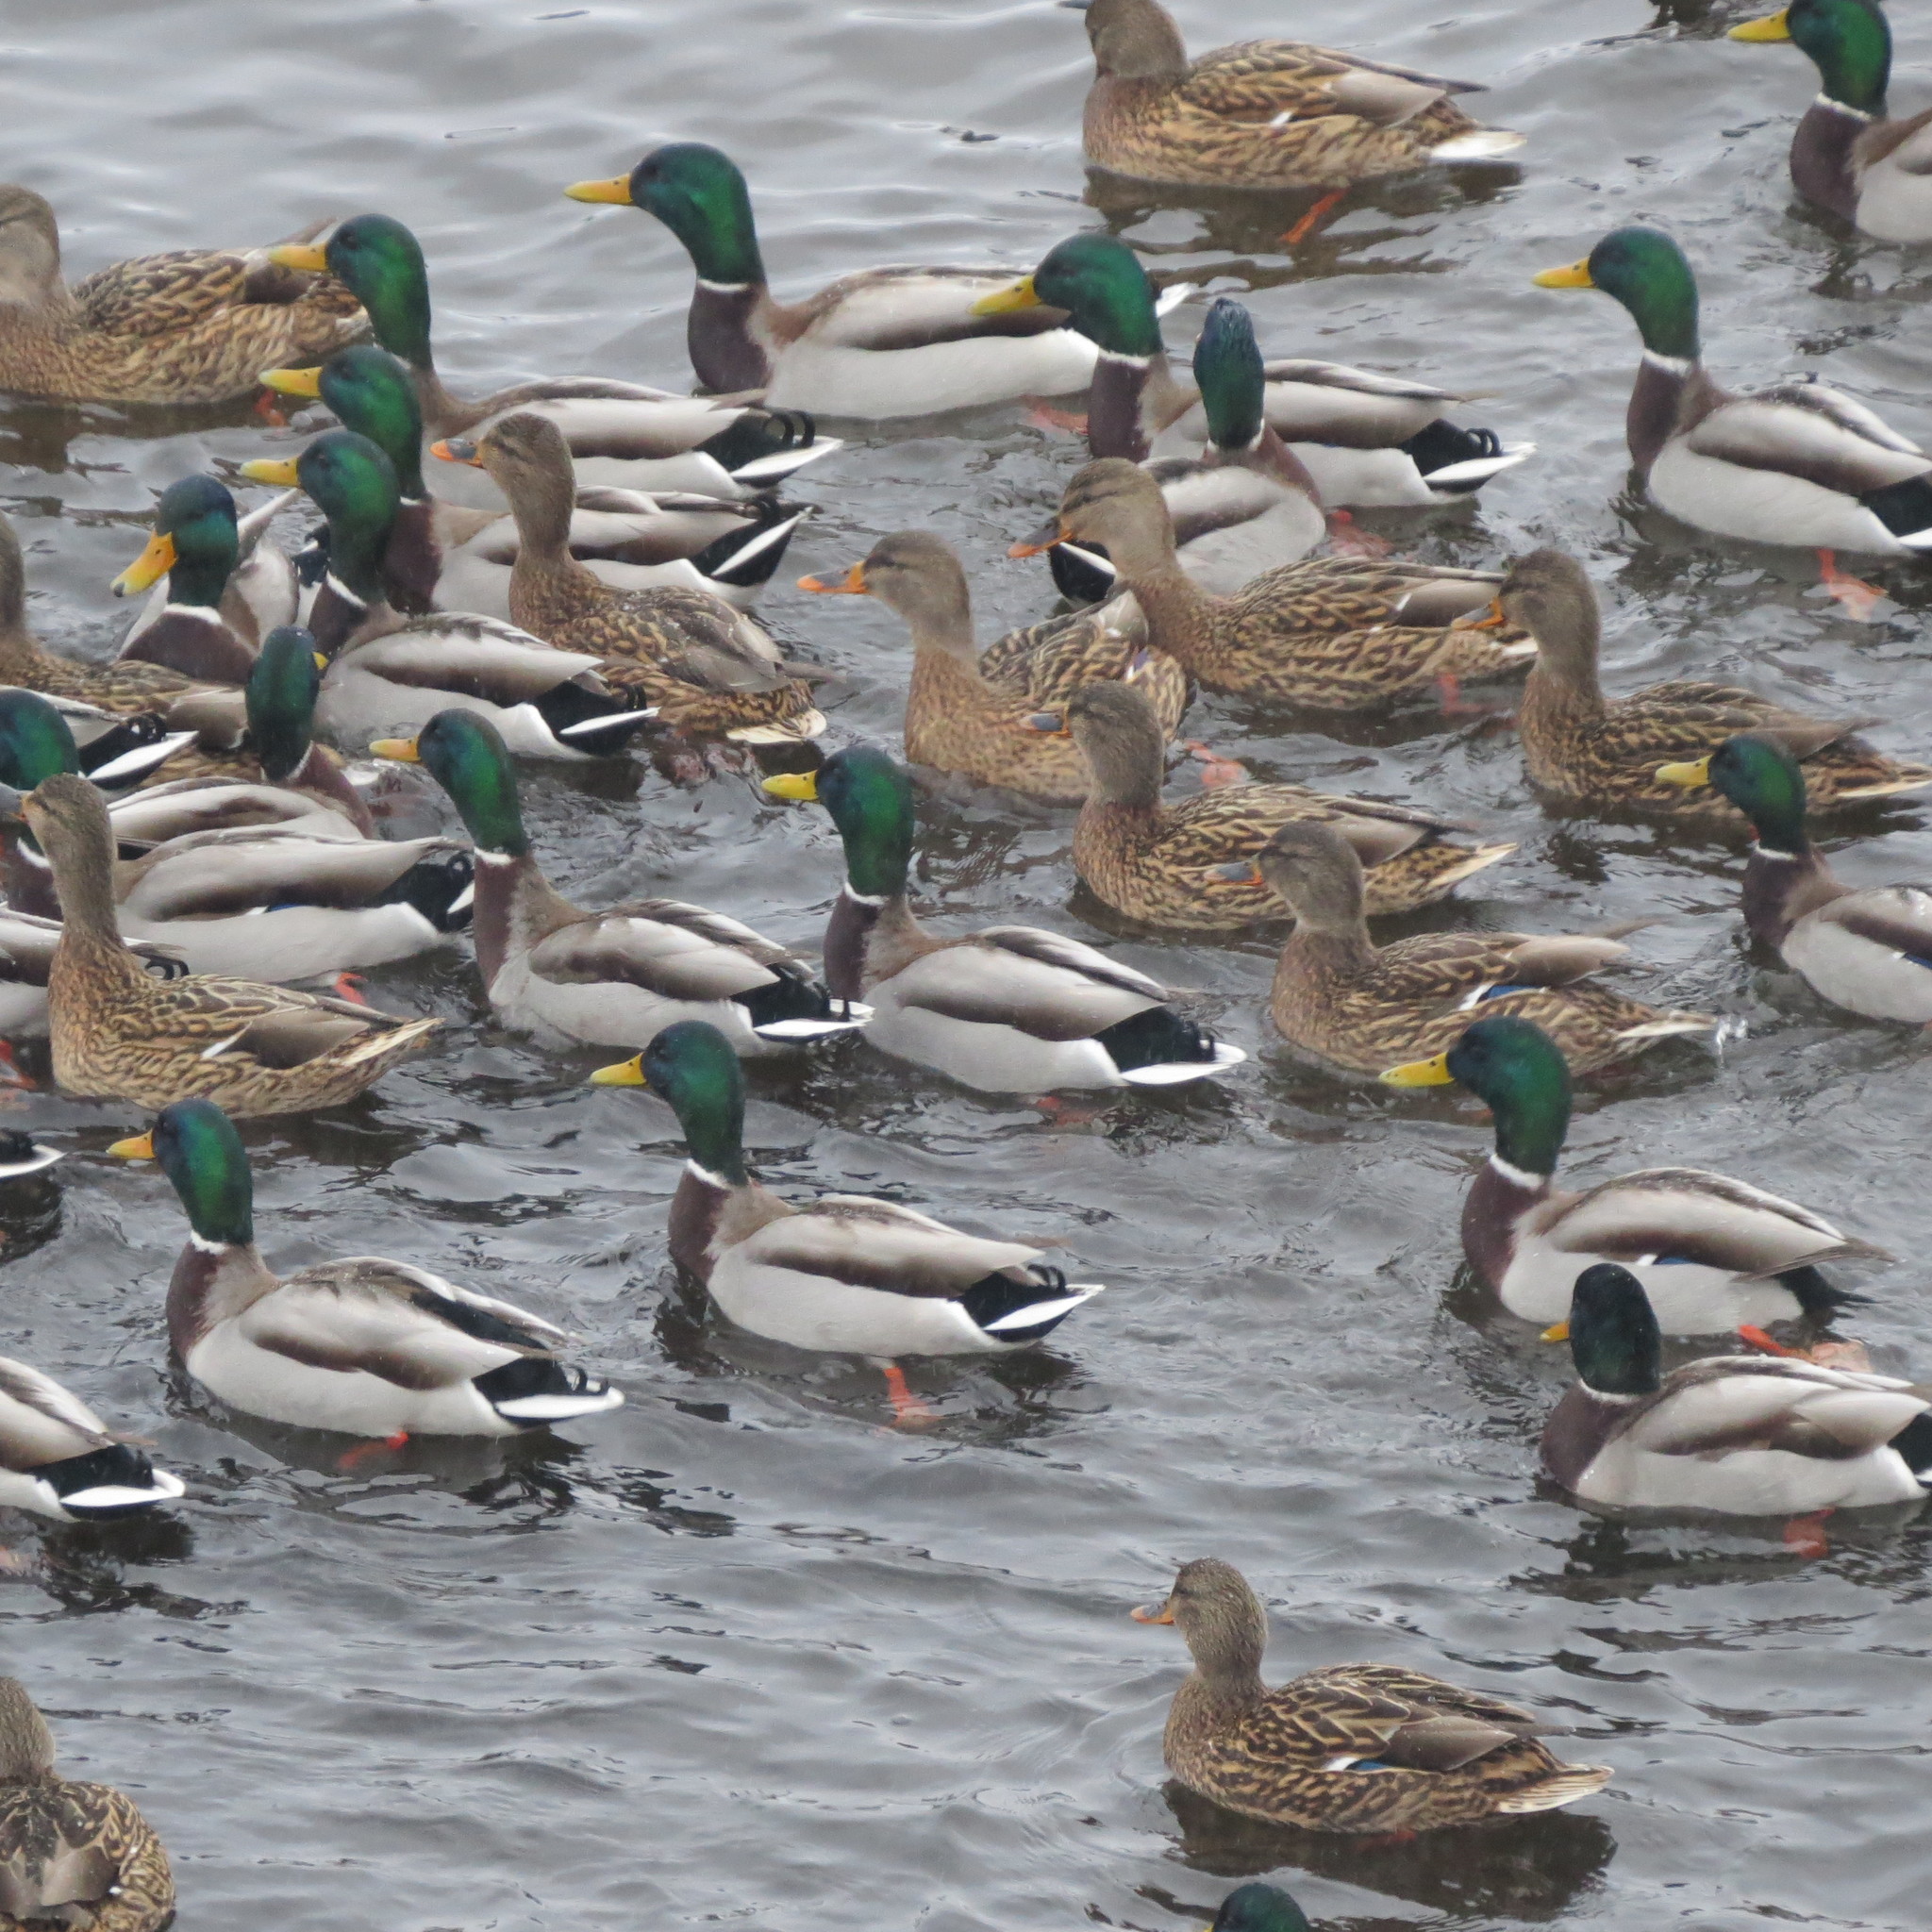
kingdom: Animalia
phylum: Chordata
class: Aves
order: Anseriformes
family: Anatidae
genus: Anas
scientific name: Anas platyrhynchos
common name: Mallard
